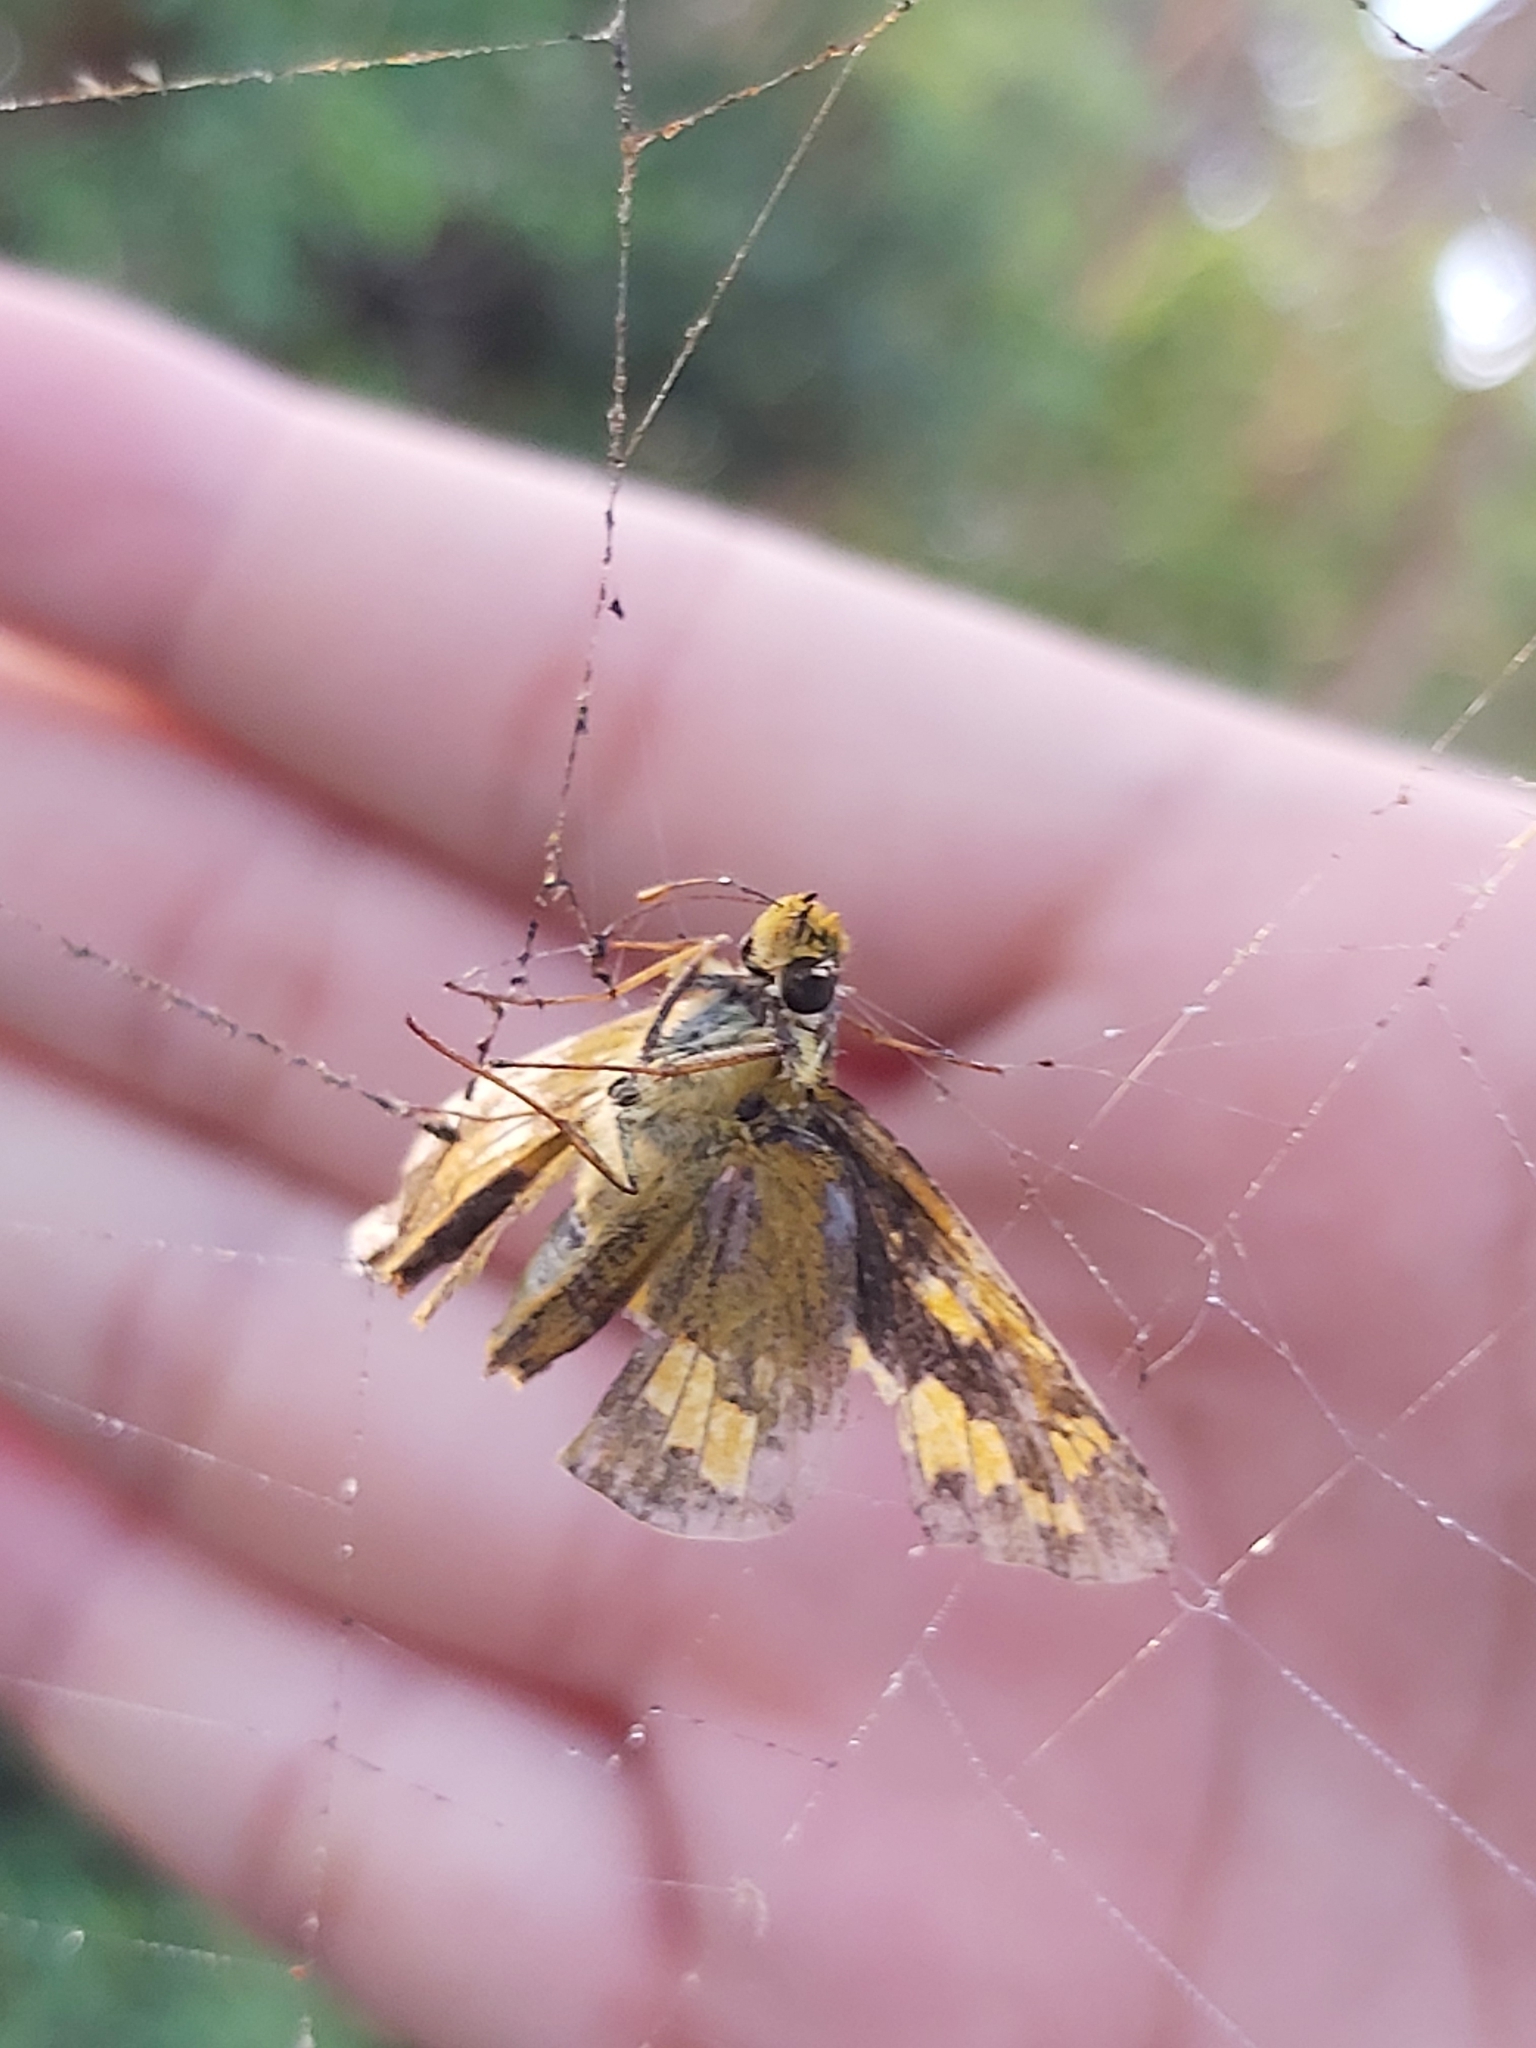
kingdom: Animalia
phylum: Arthropoda
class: Insecta
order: Lepidoptera
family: Hesperiidae
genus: Cephrenes
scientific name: Cephrenes augiades
